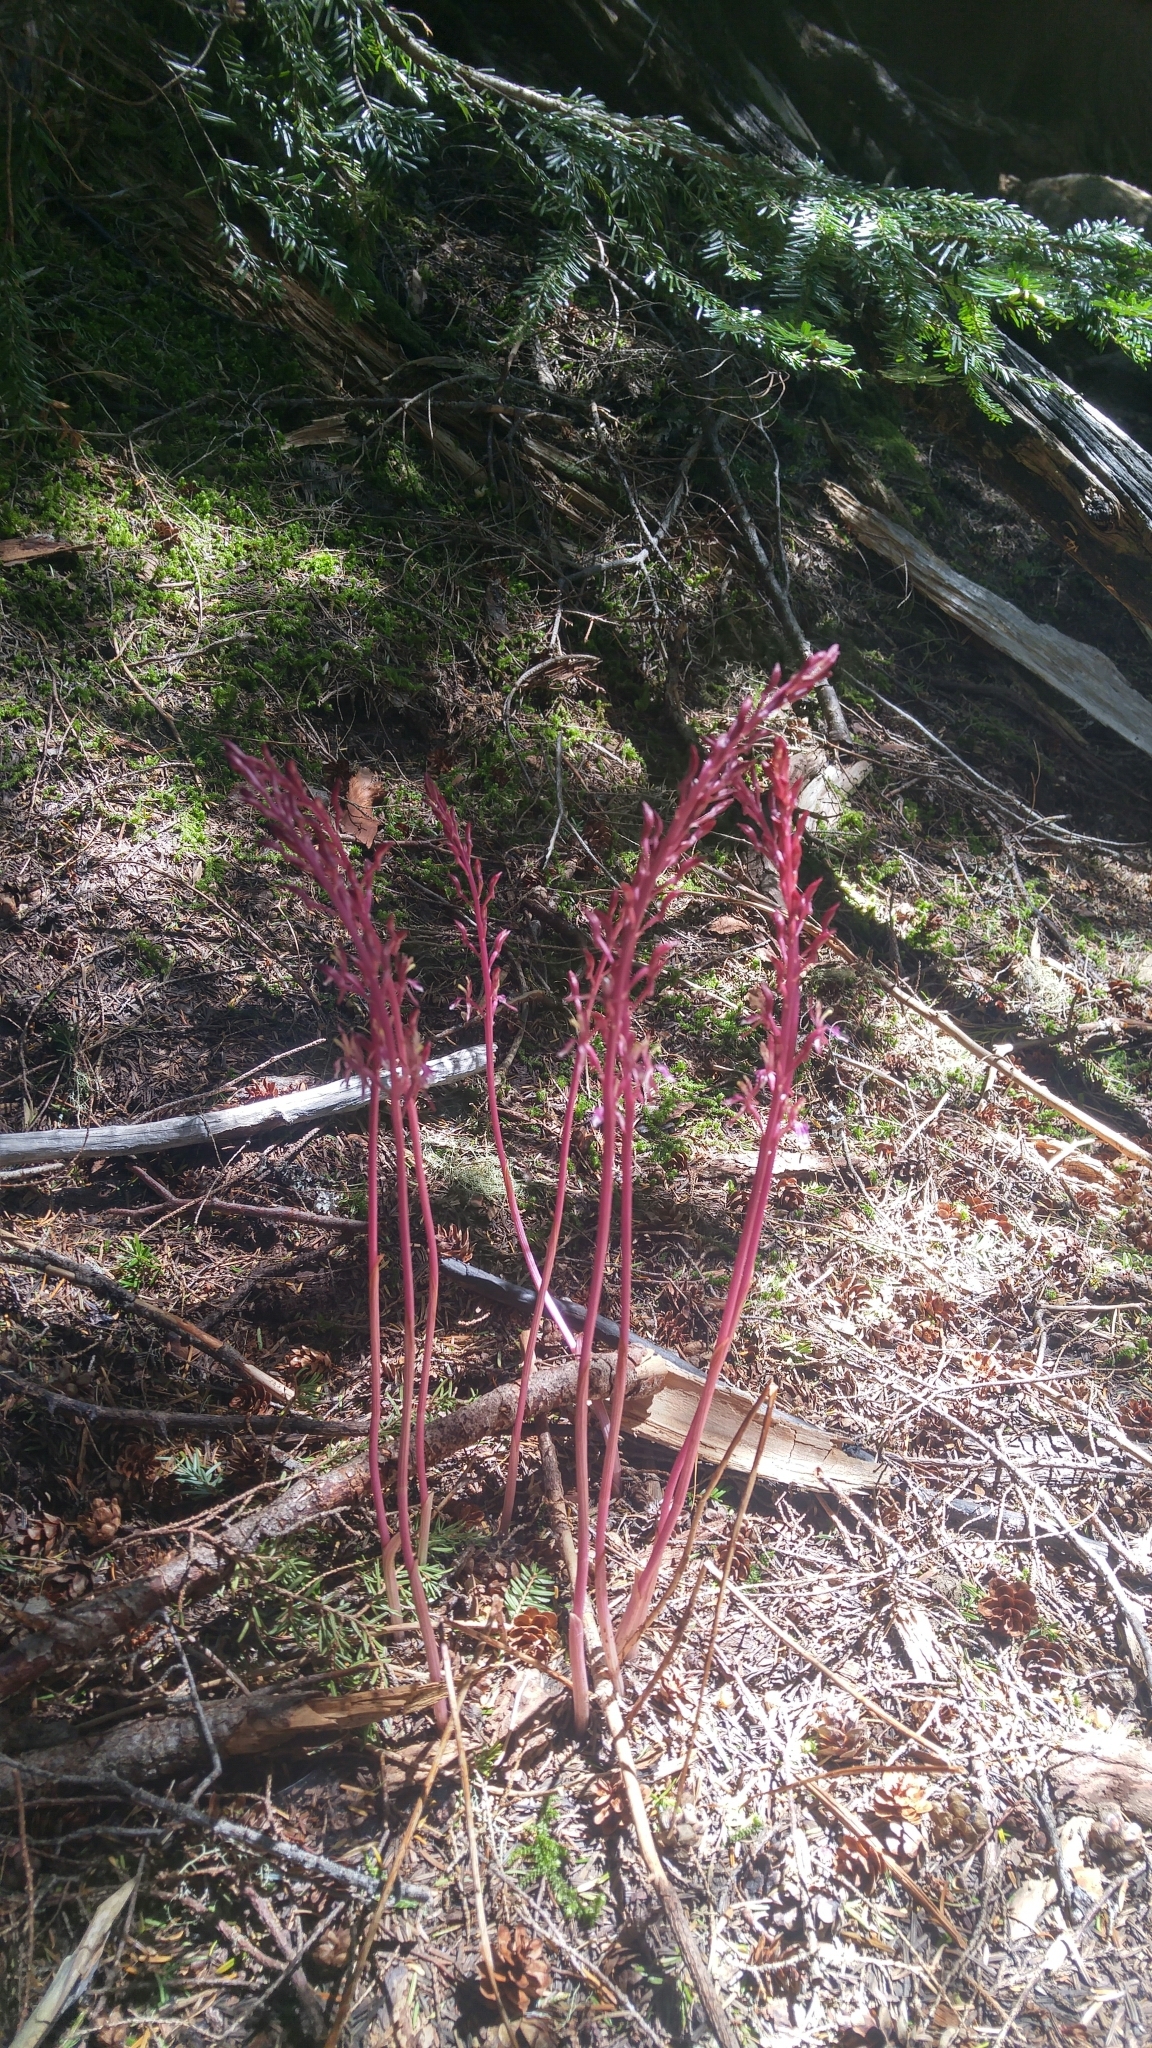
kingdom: Plantae
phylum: Tracheophyta
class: Liliopsida
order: Asparagales
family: Orchidaceae
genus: Corallorhiza
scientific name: Corallorhiza mertensiana
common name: Pacific coralroot
